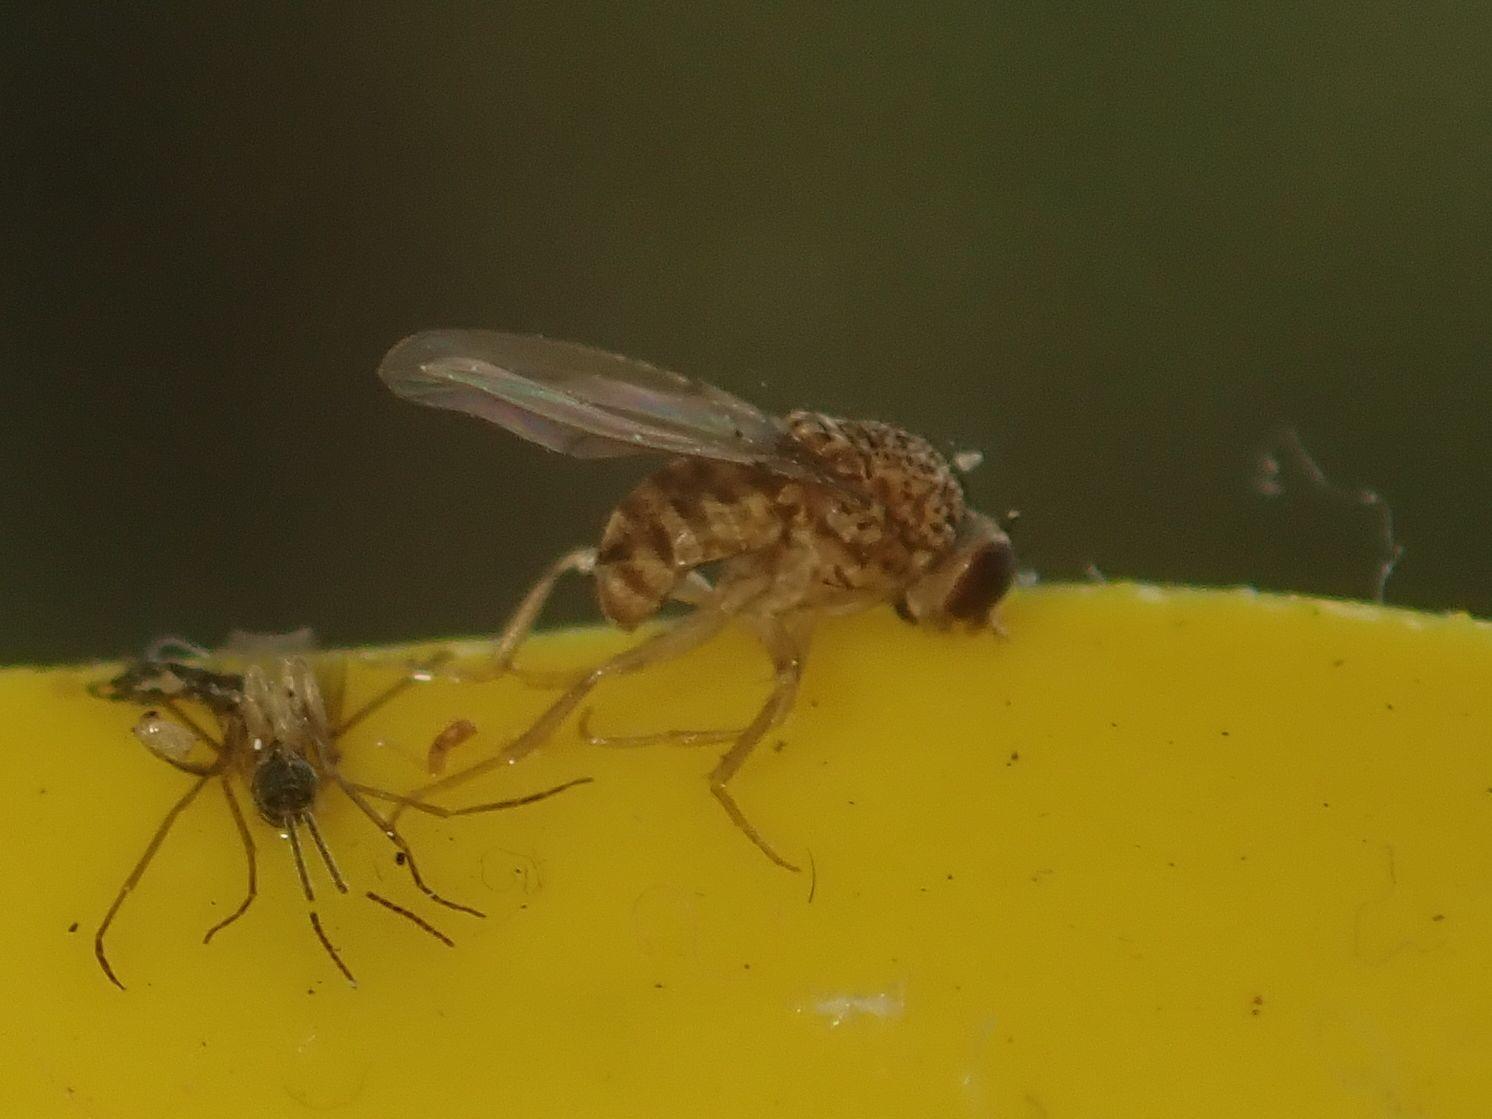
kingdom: Animalia
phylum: Arthropoda
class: Insecta
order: Diptera
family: Drosophilidae
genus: Drosophila
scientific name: Drosophila repleta
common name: Pomace fly
